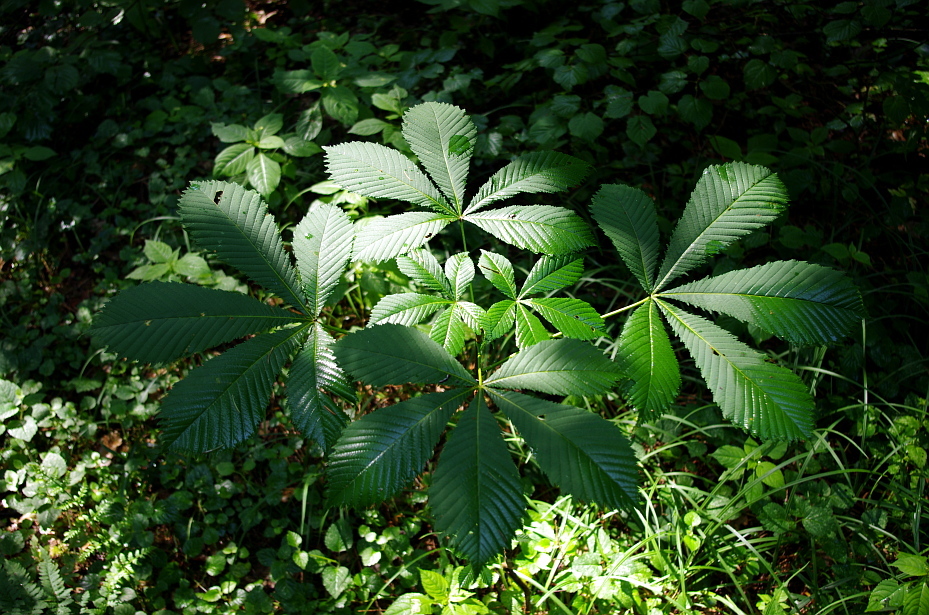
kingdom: Plantae
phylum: Tracheophyta
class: Magnoliopsida
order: Sapindales
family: Sapindaceae
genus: Aesculus
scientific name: Aesculus hippocastanum
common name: Horse-chestnut
